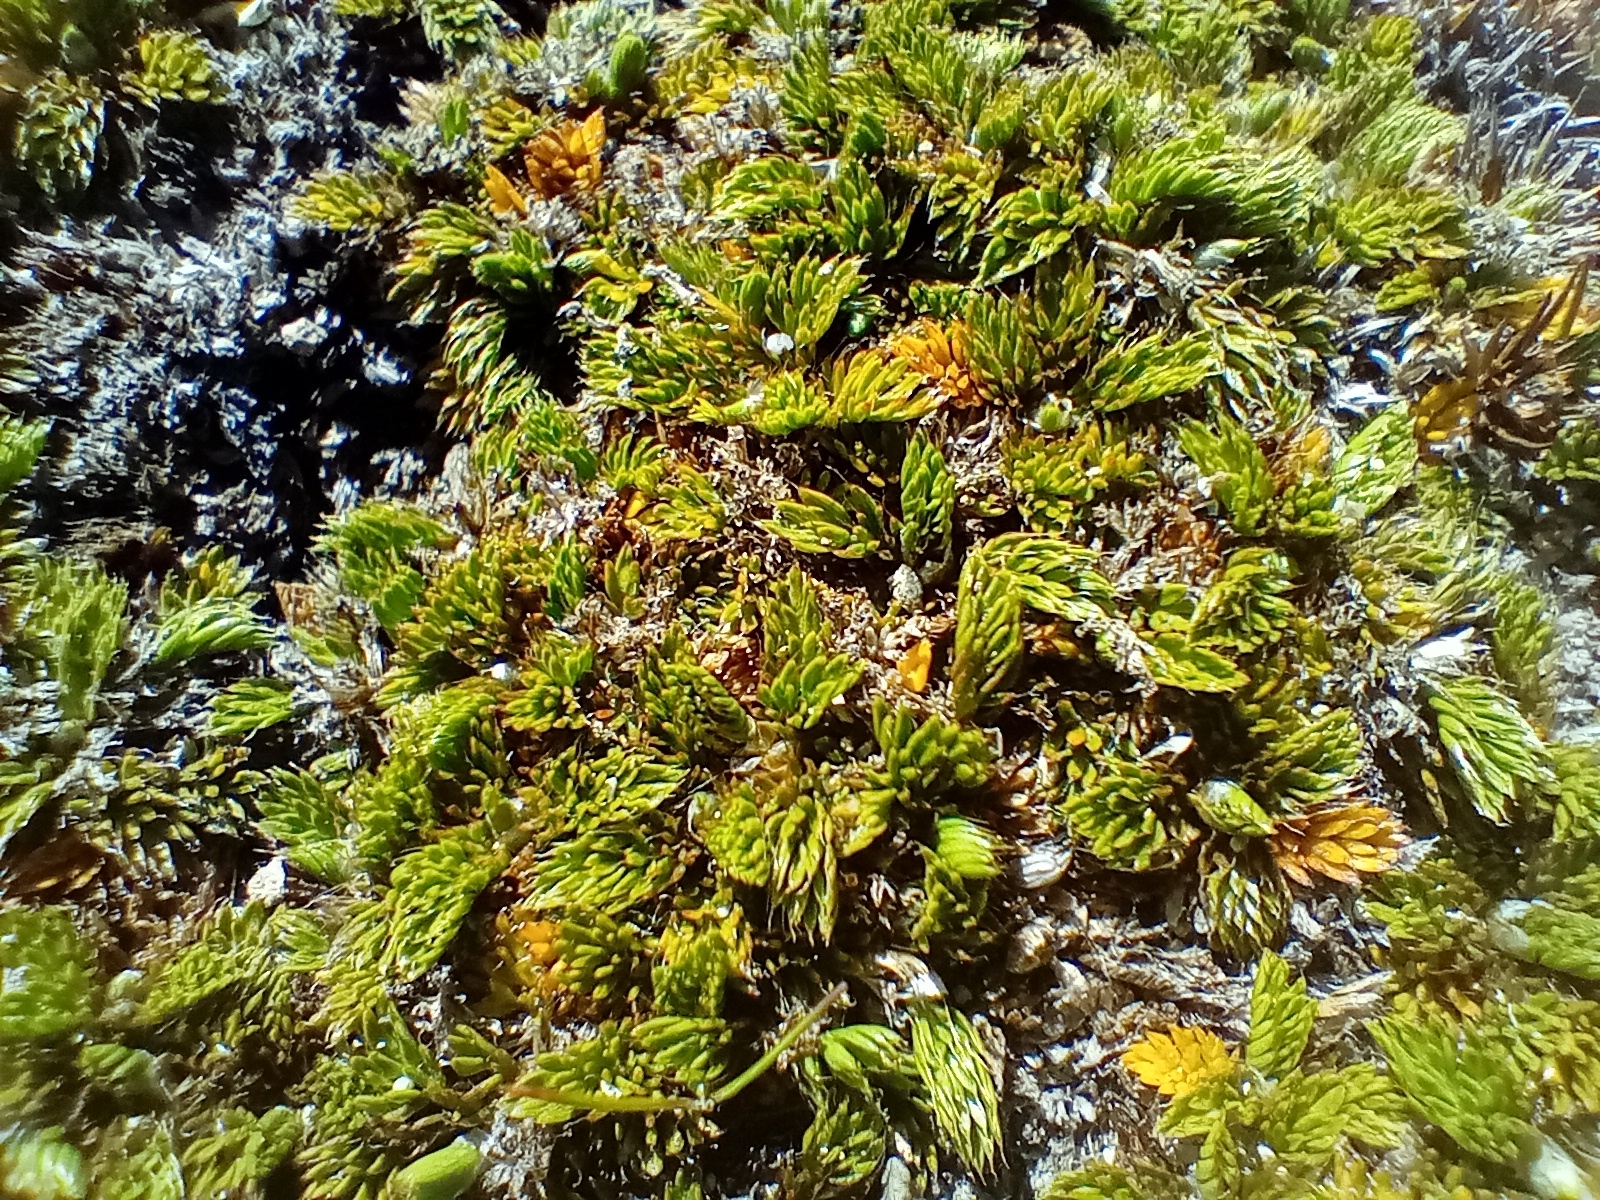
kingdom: Plantae
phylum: Tracheophyta
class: Magnoliopsida
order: Apiales
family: Apiaceae
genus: Anisotome
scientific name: Anisotome imbricata
